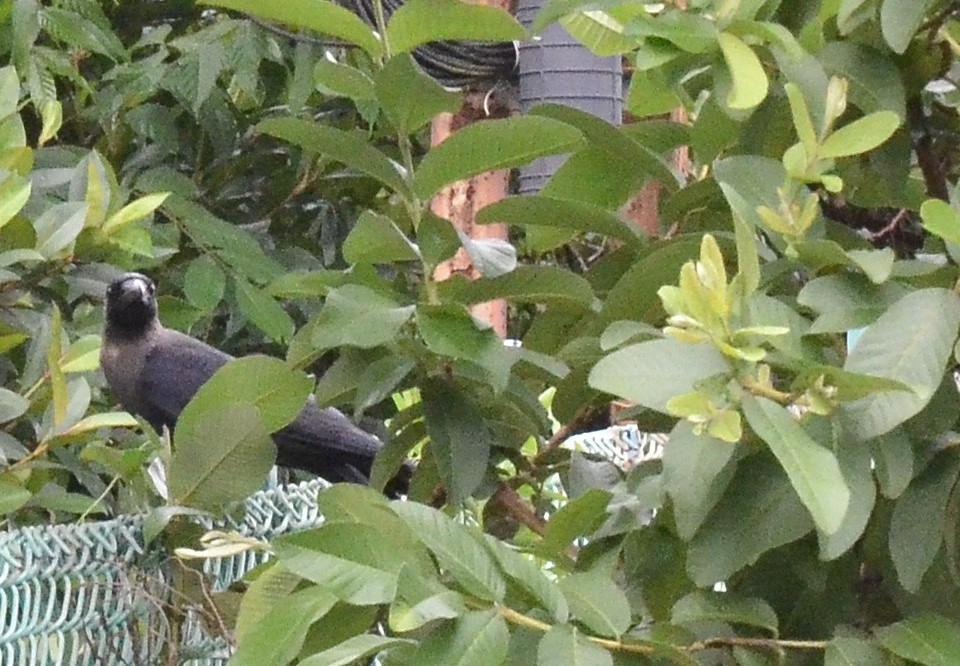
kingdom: Animalia
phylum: Chordata
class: Aves
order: Passeriformes
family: Corvidae
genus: Corvus
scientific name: Corvus splendens
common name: House crow
